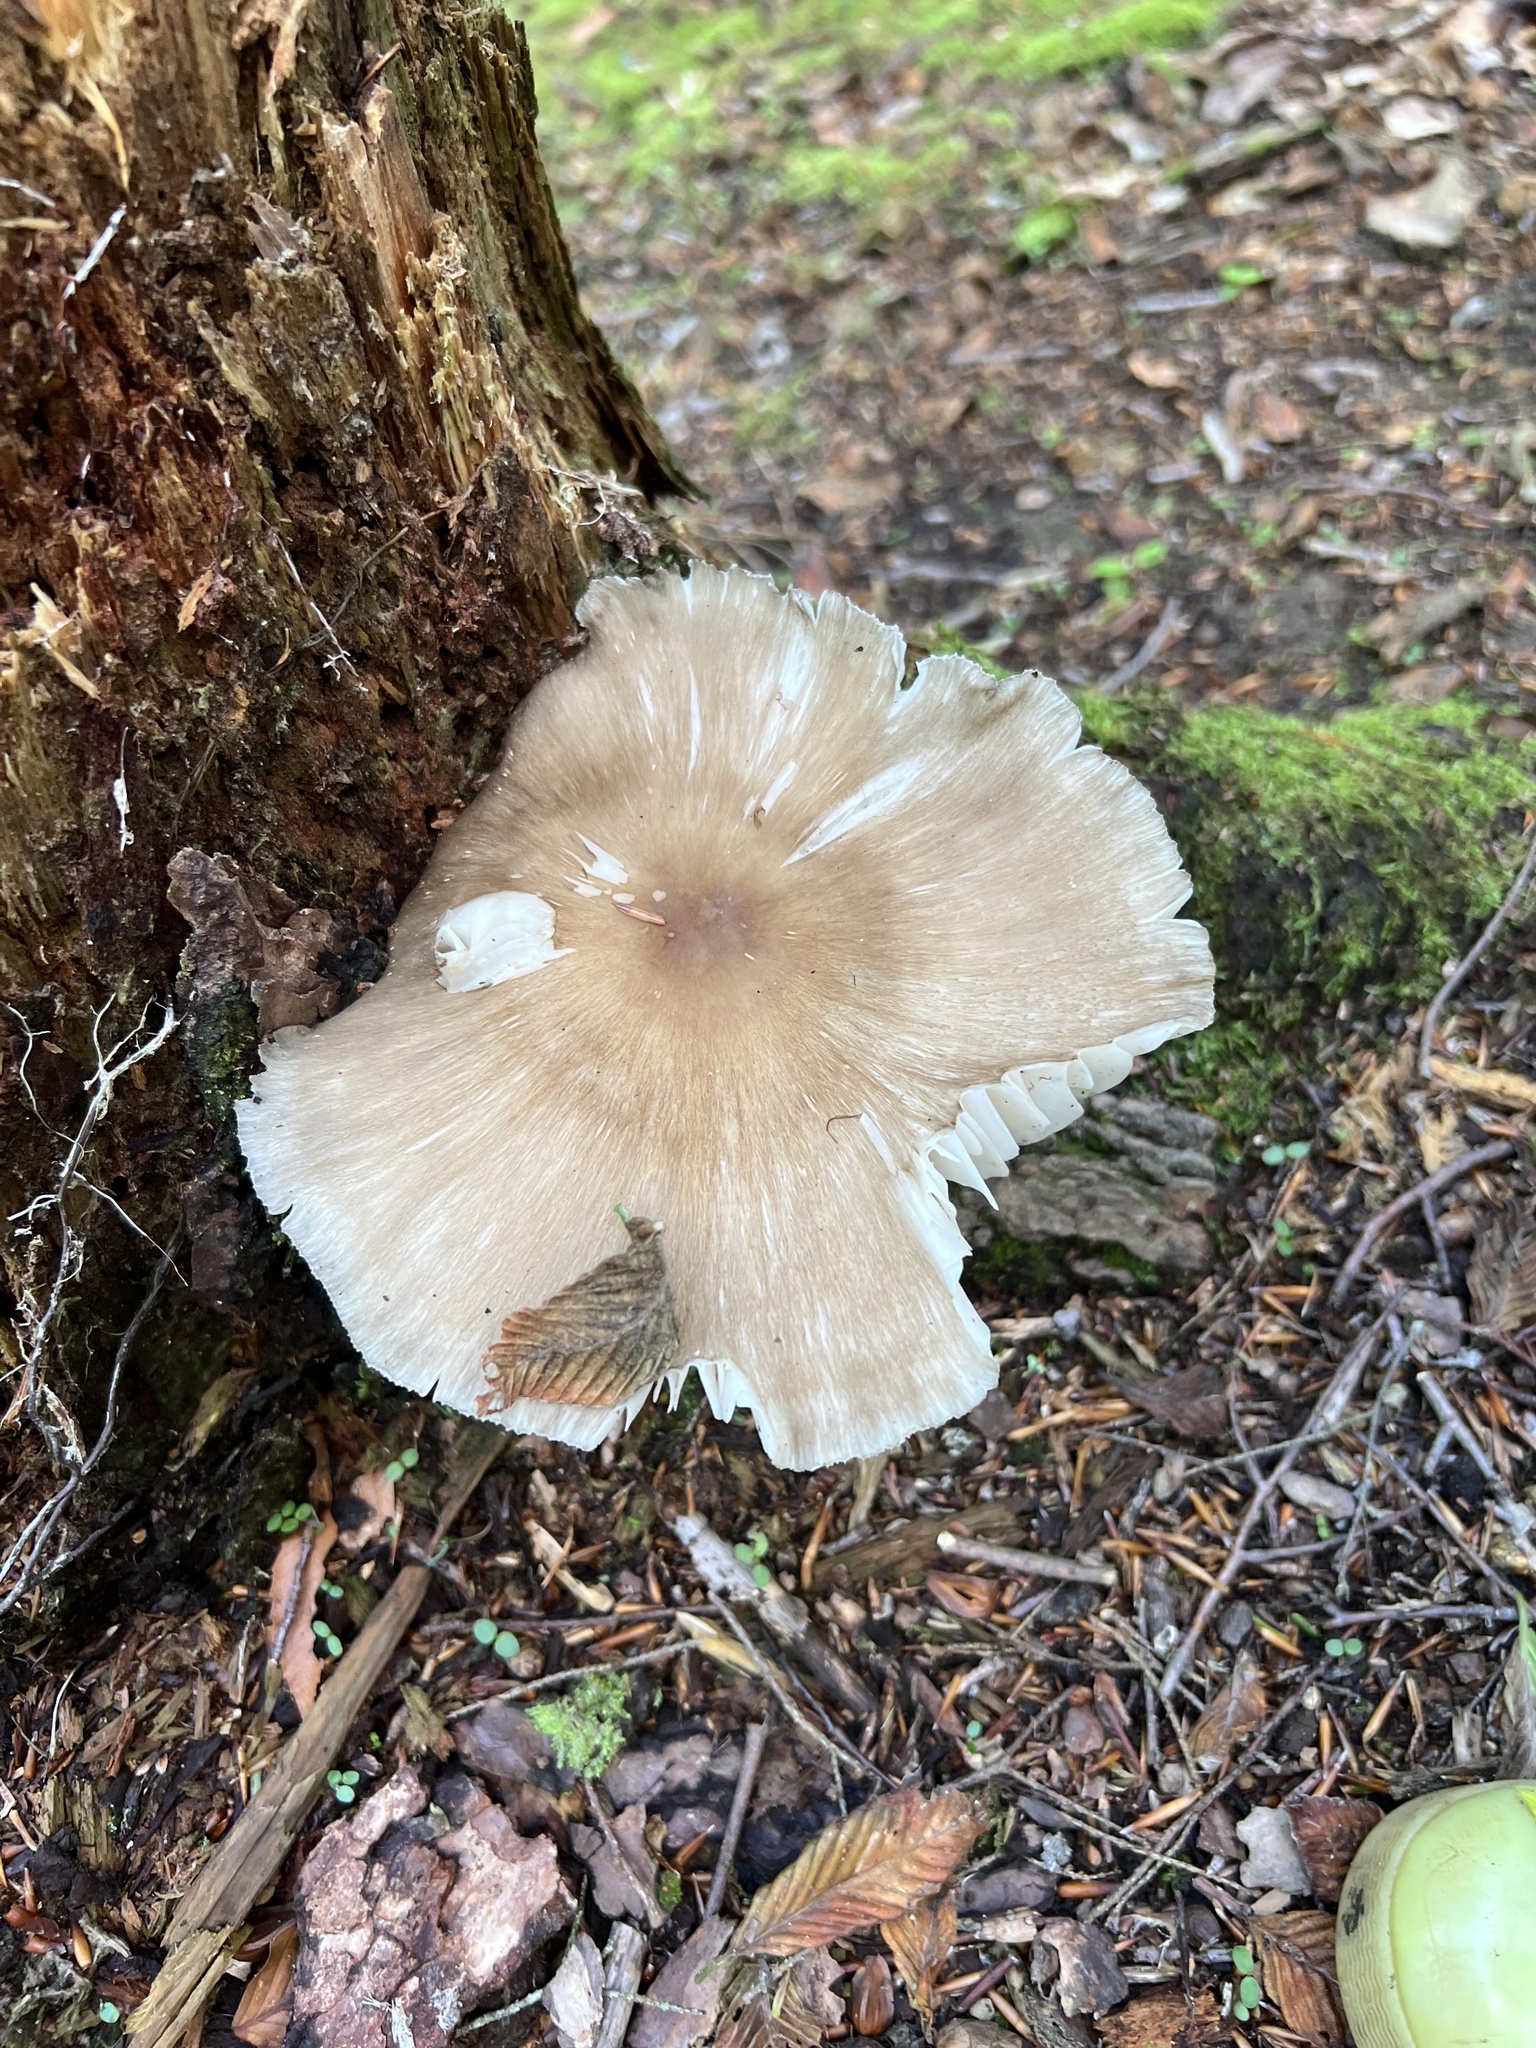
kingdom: Fungi
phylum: Basidiomycota
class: Agaricomycetes
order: Agaricales
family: Tricholomataceae
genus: Megacollybia
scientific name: Megacollybia rodmanii
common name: Eastern american platterful mushroom
